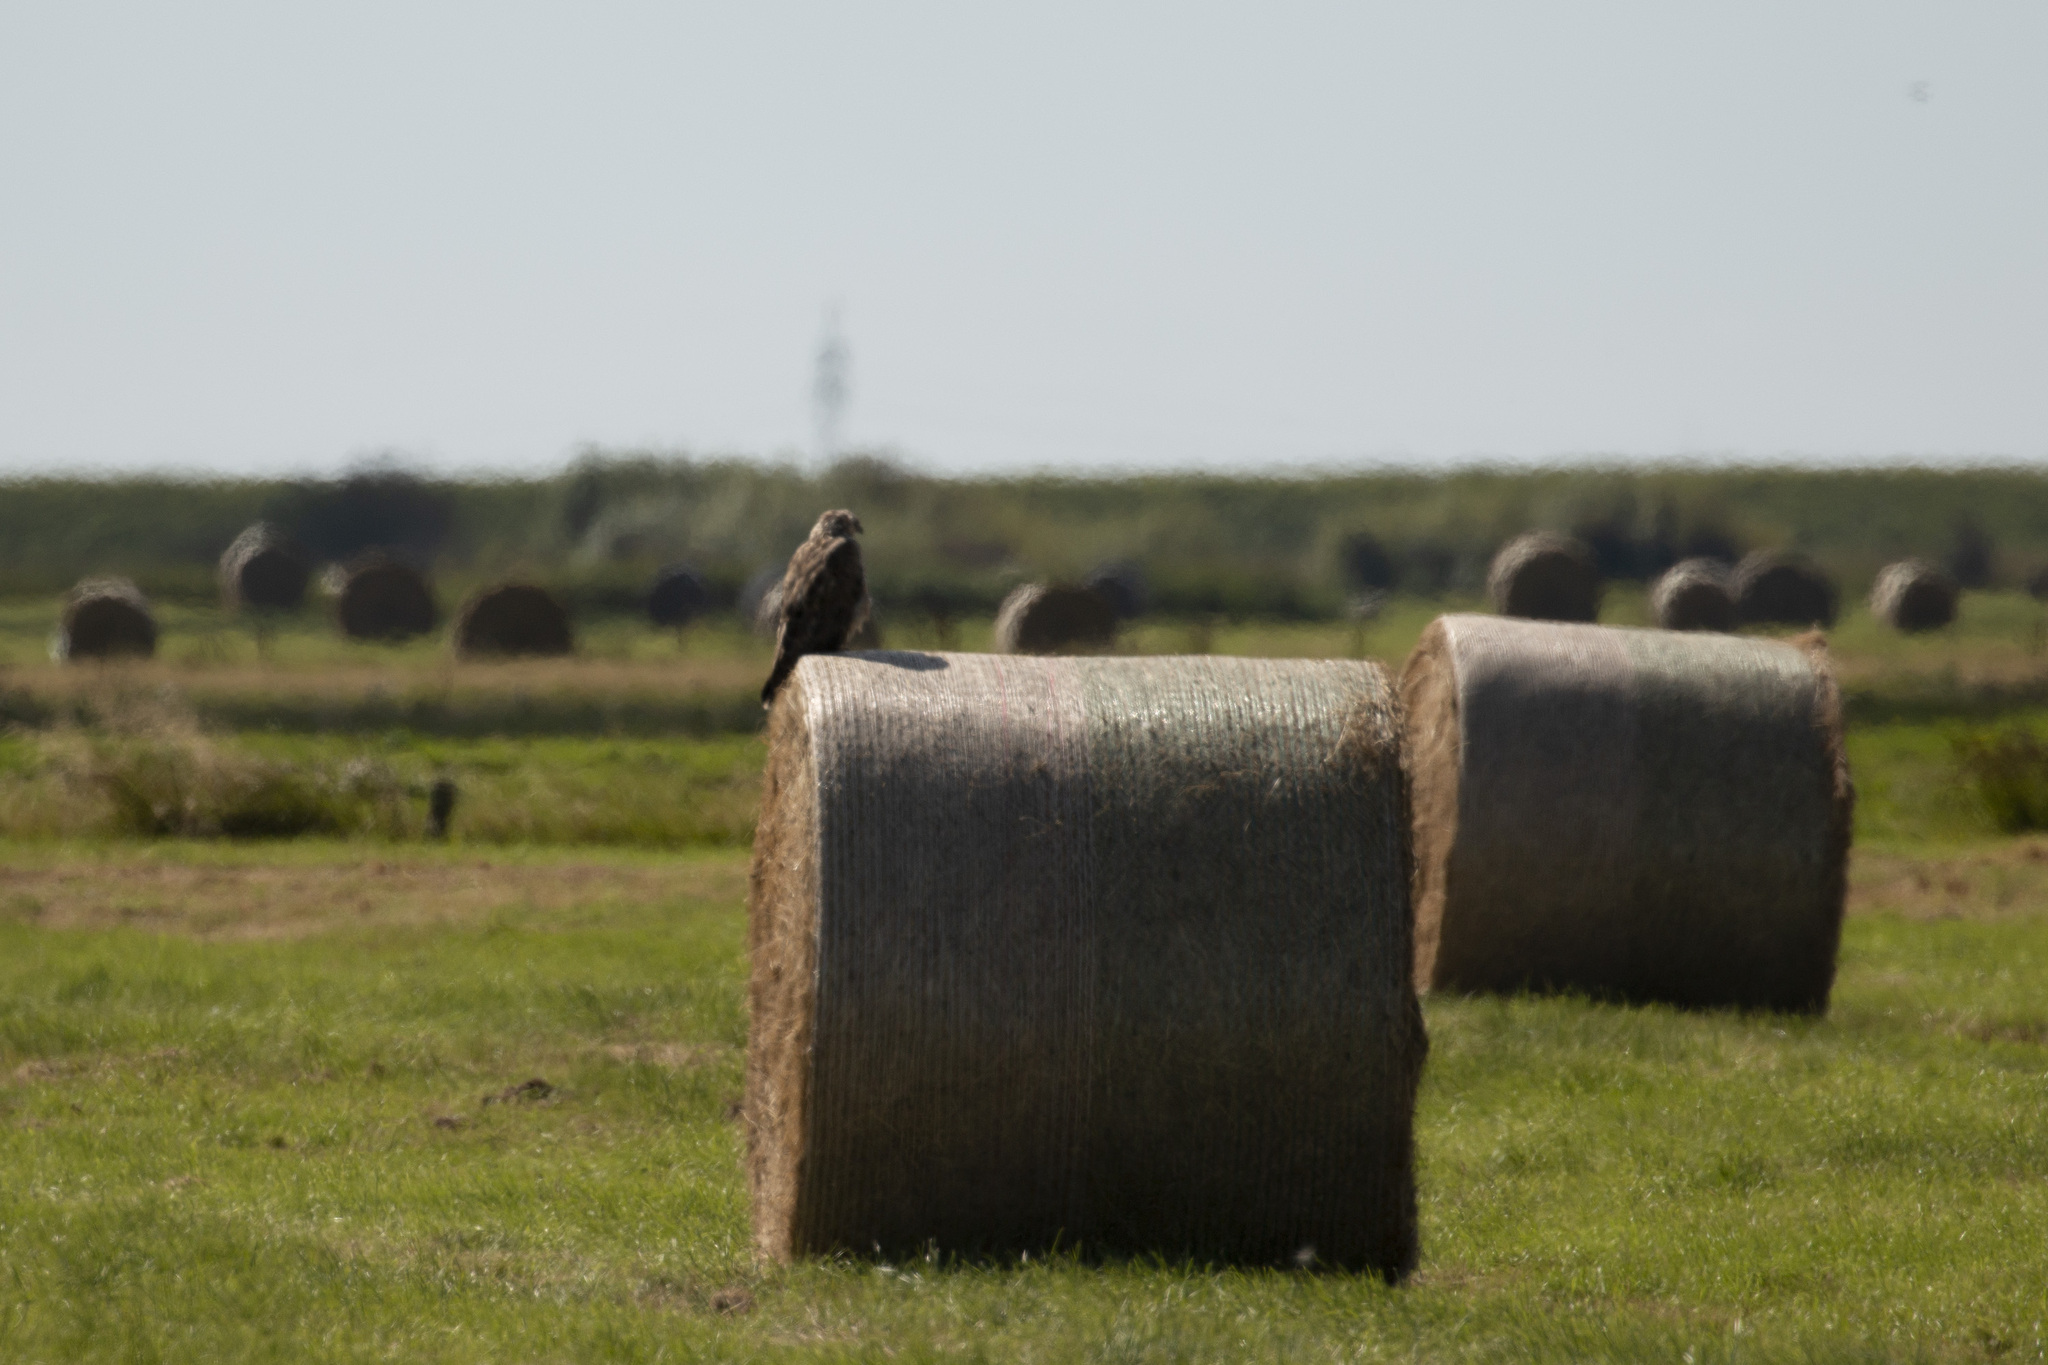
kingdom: Animalia
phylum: Chordata
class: Aves
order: Accipitriformes
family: Accipitridae
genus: Buteo
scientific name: Buteo buteo
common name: Common buzzard
